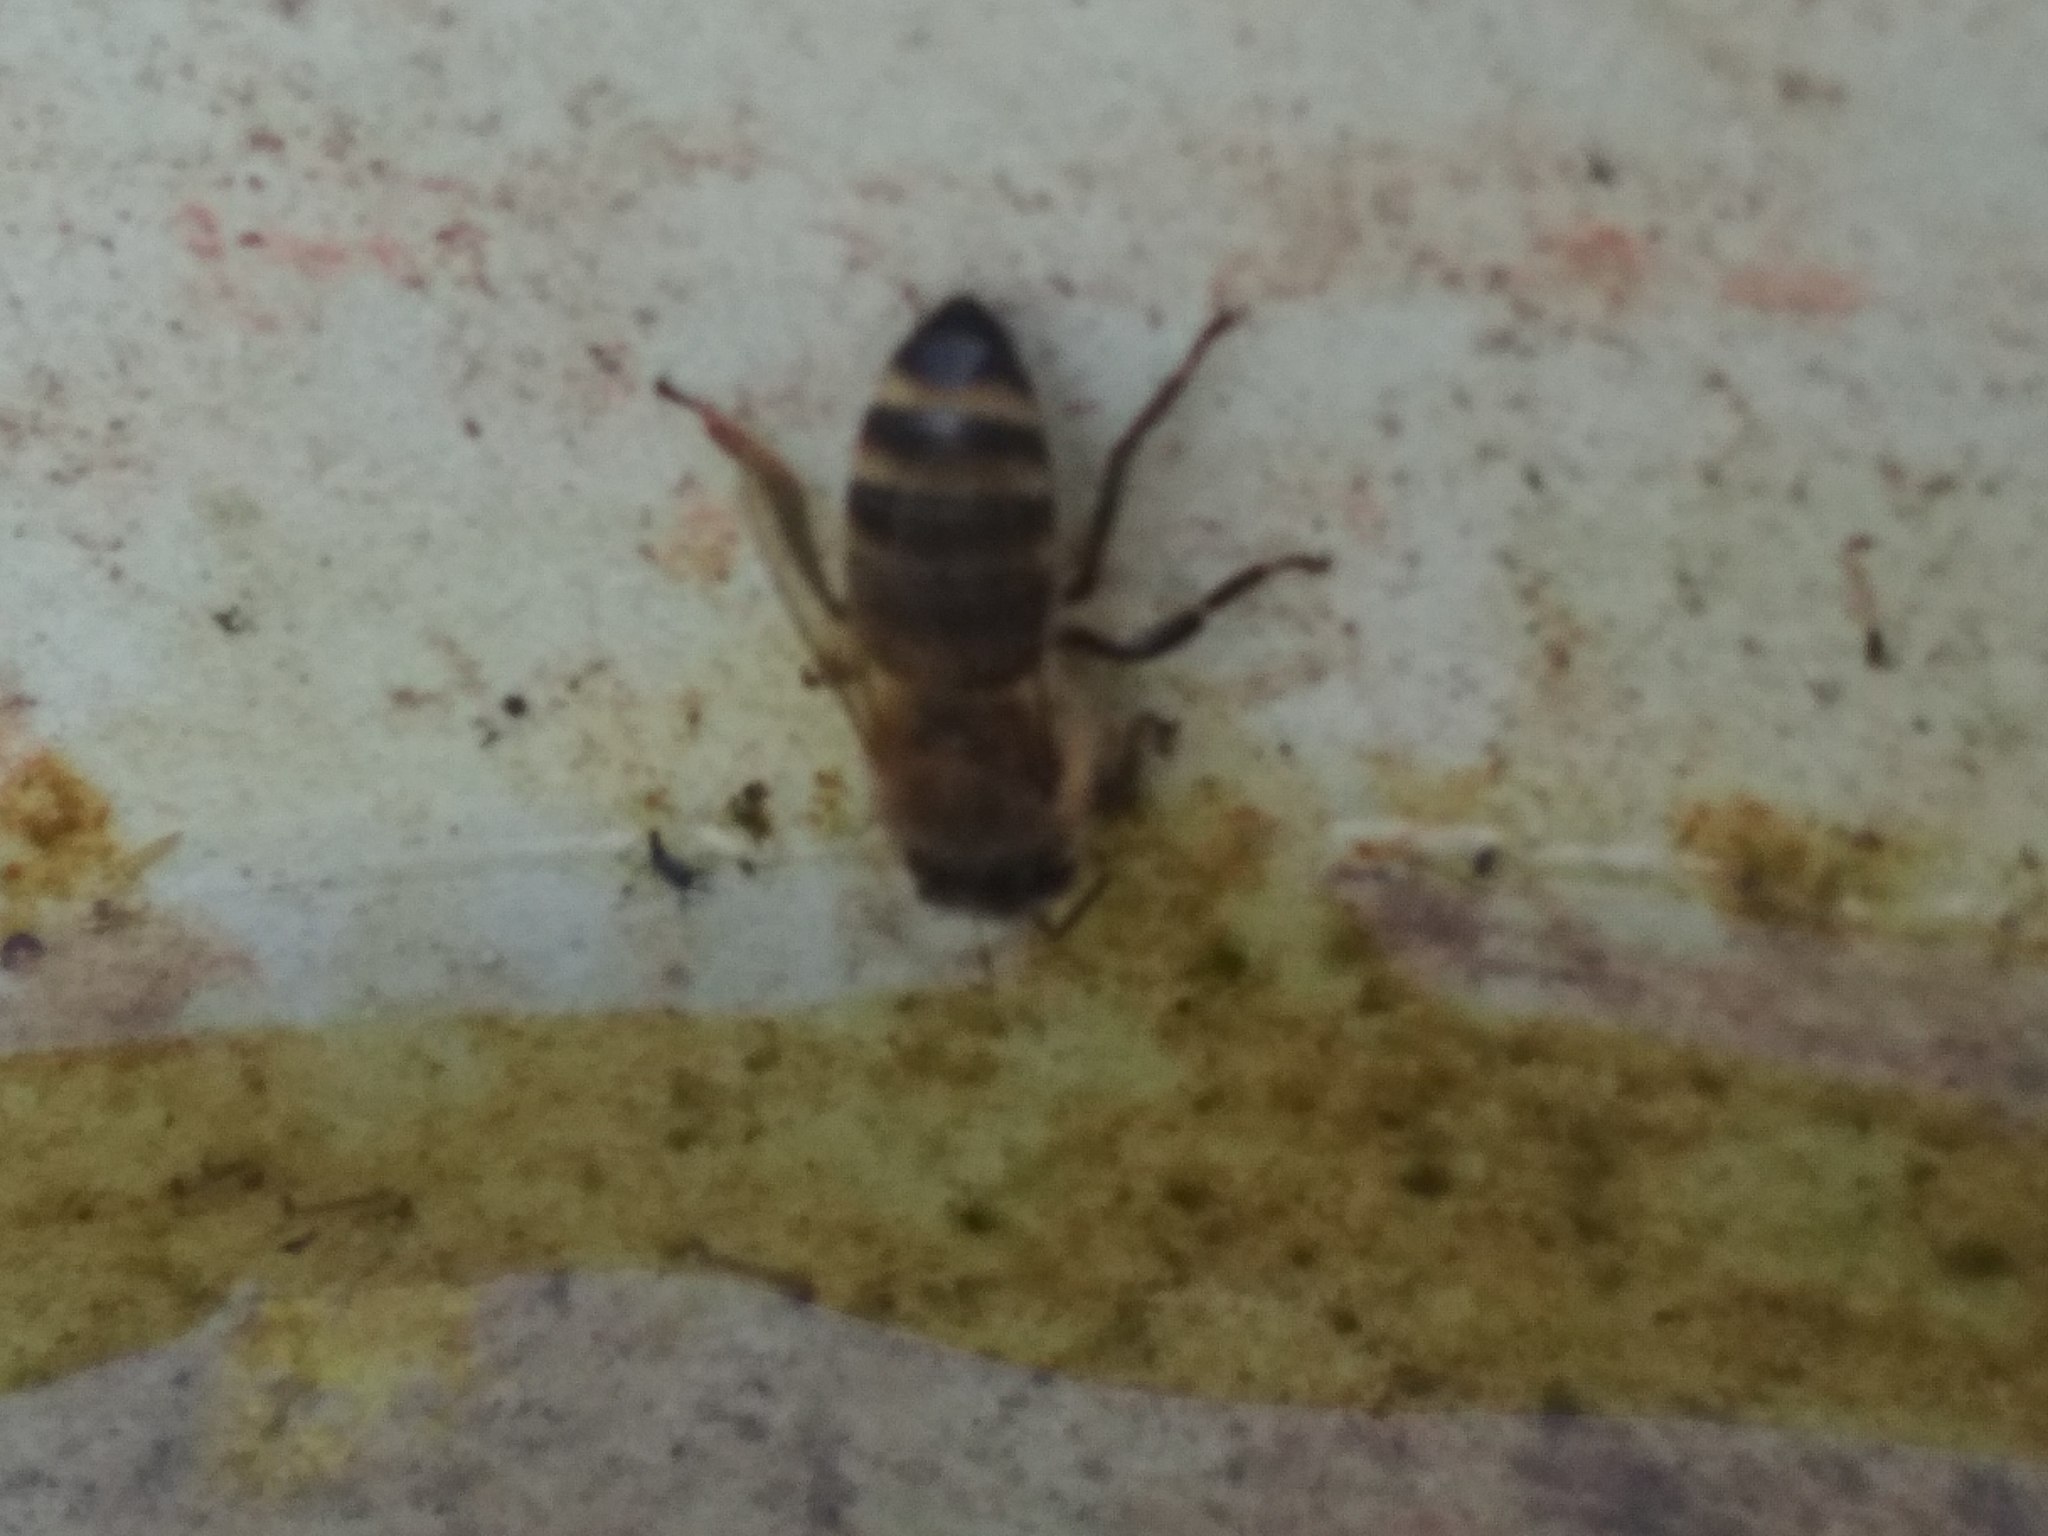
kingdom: Animalia
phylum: Arthropoda
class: Insecta
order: Hymenoptera
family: Apidae
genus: Apis
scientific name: Apis mellifera
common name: Honey bee
